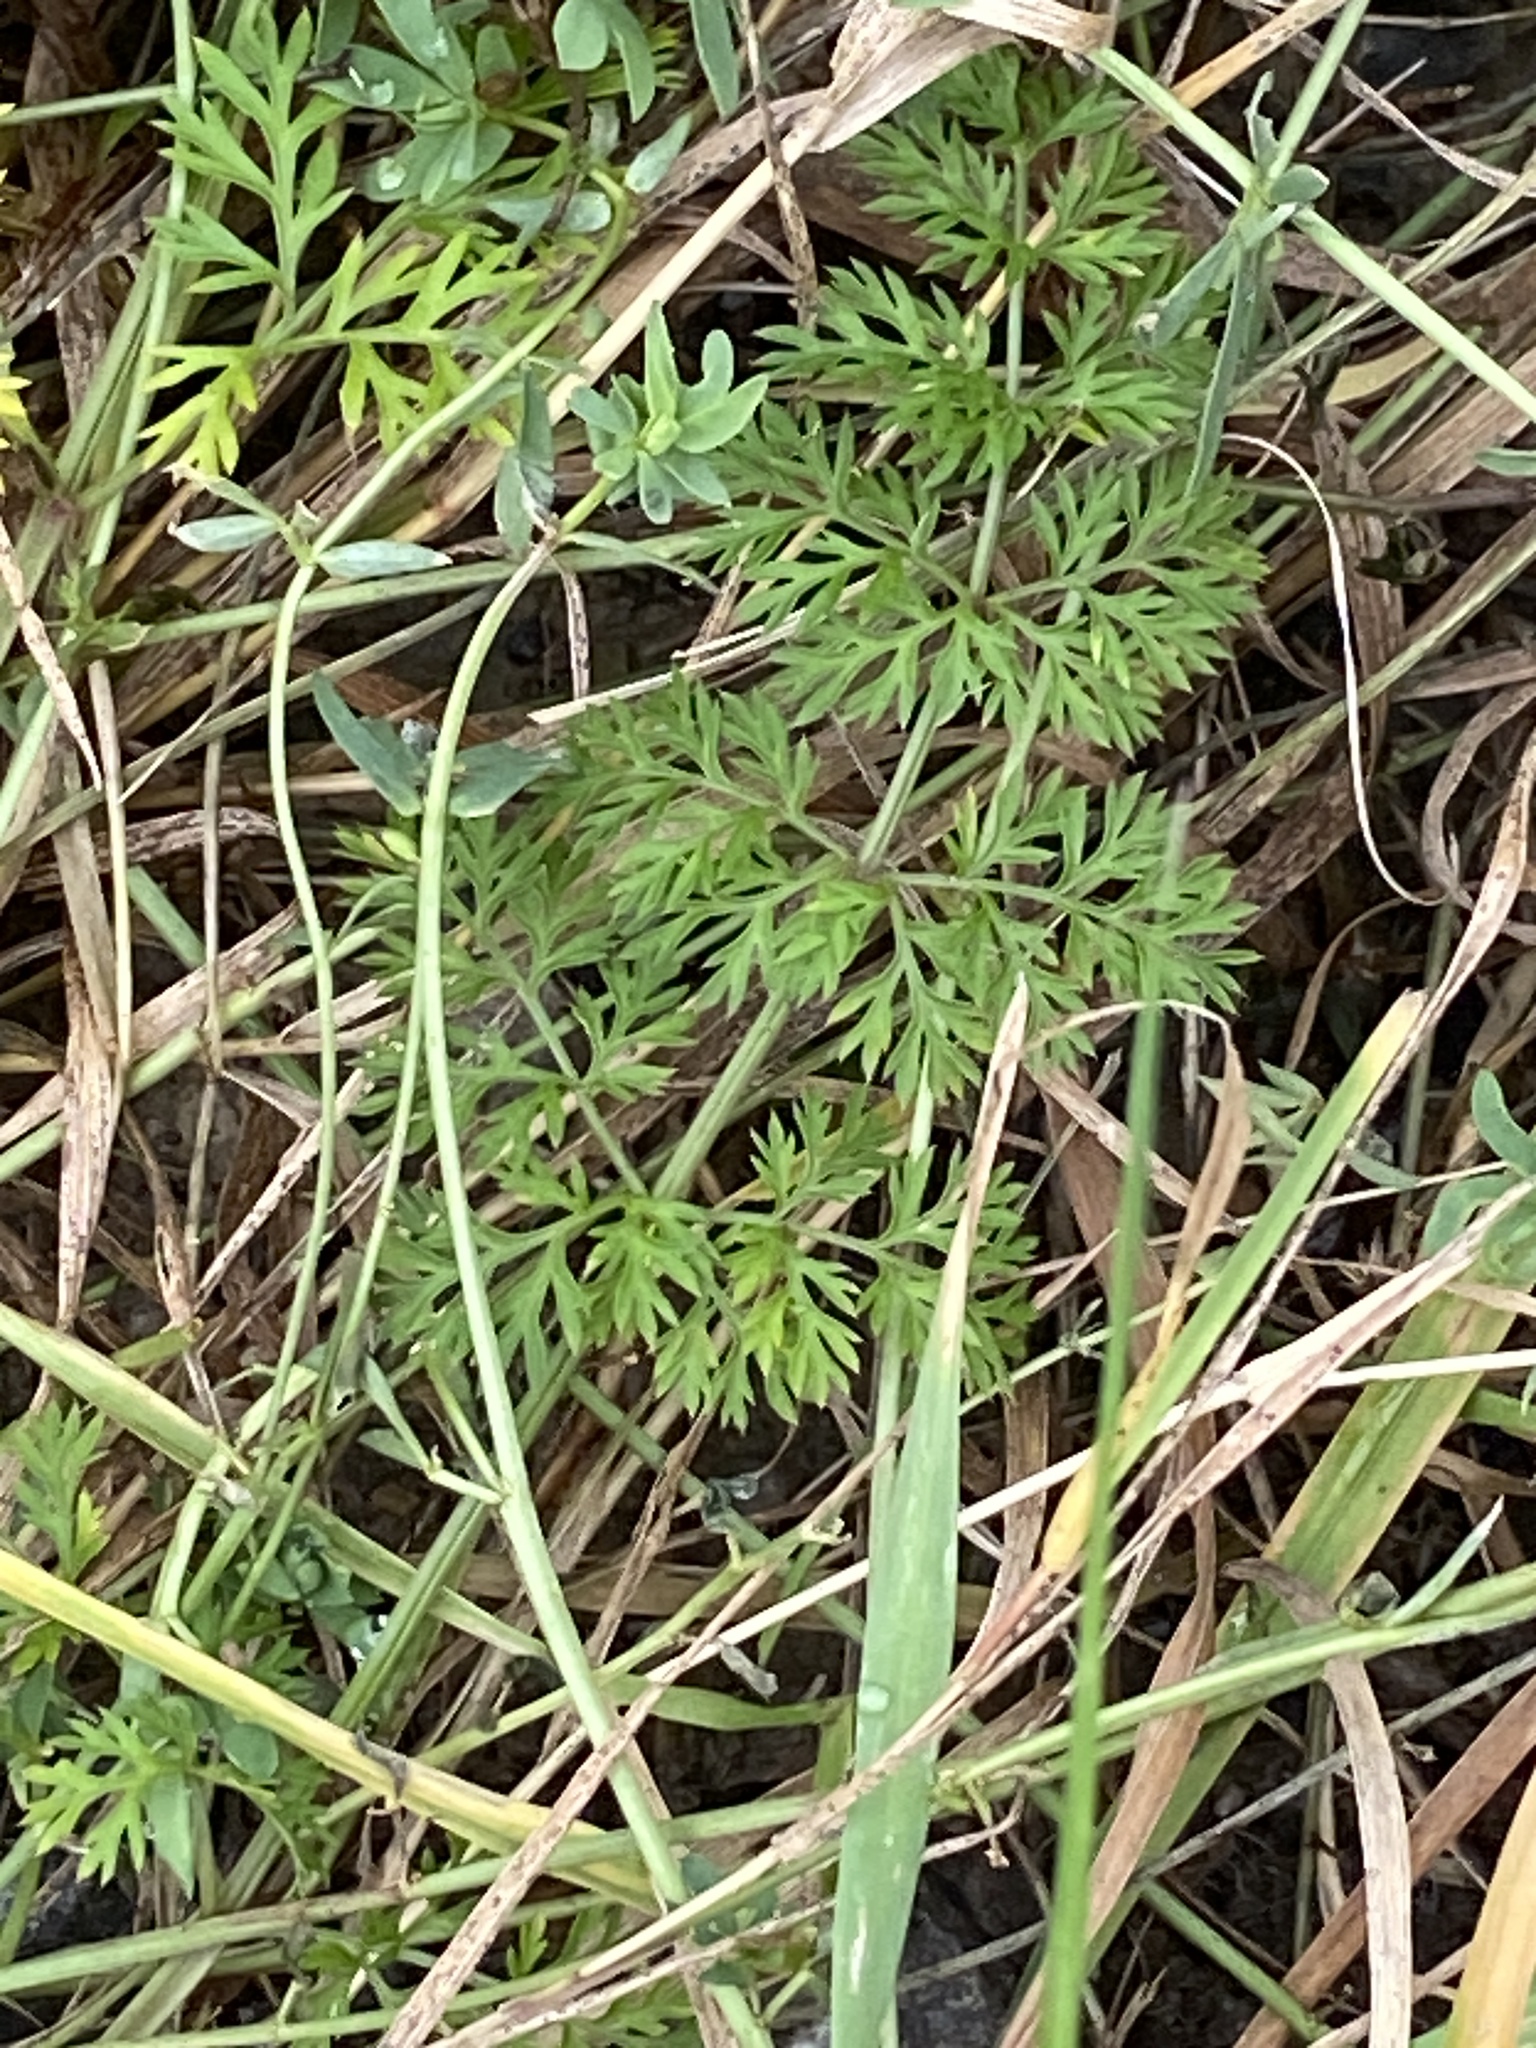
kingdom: Plantae
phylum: Tracheophyta
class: Magnoliopsida
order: Apiales
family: Apiaceae
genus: Daucus
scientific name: Daucus carota
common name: Wild carrot
